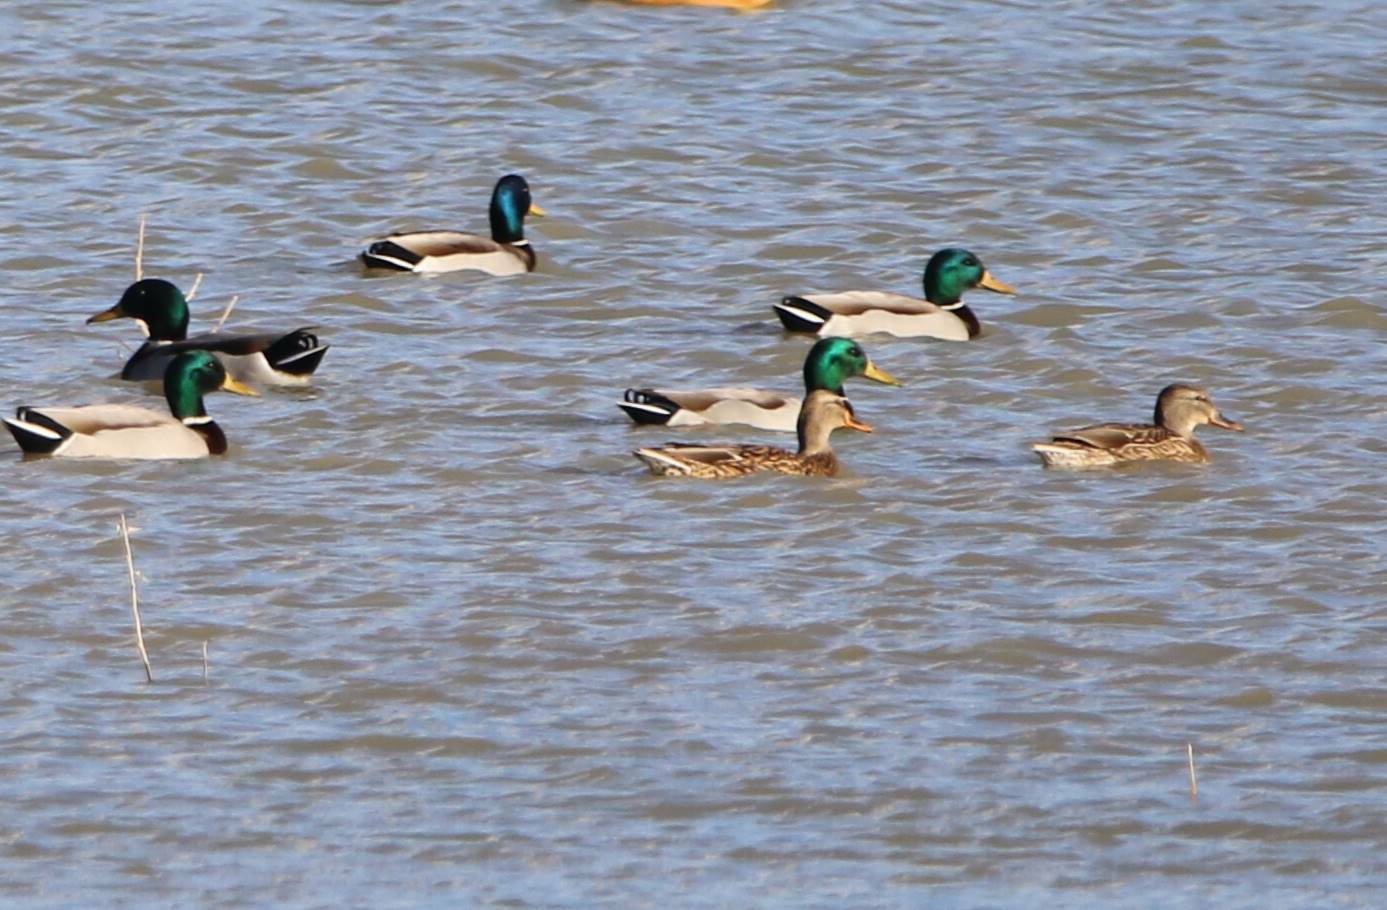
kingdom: Animalia
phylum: Chordata
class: Aves
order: Anseriformes
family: Anatidae
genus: Anas
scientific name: Anas platyrhynchos
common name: Mallard
